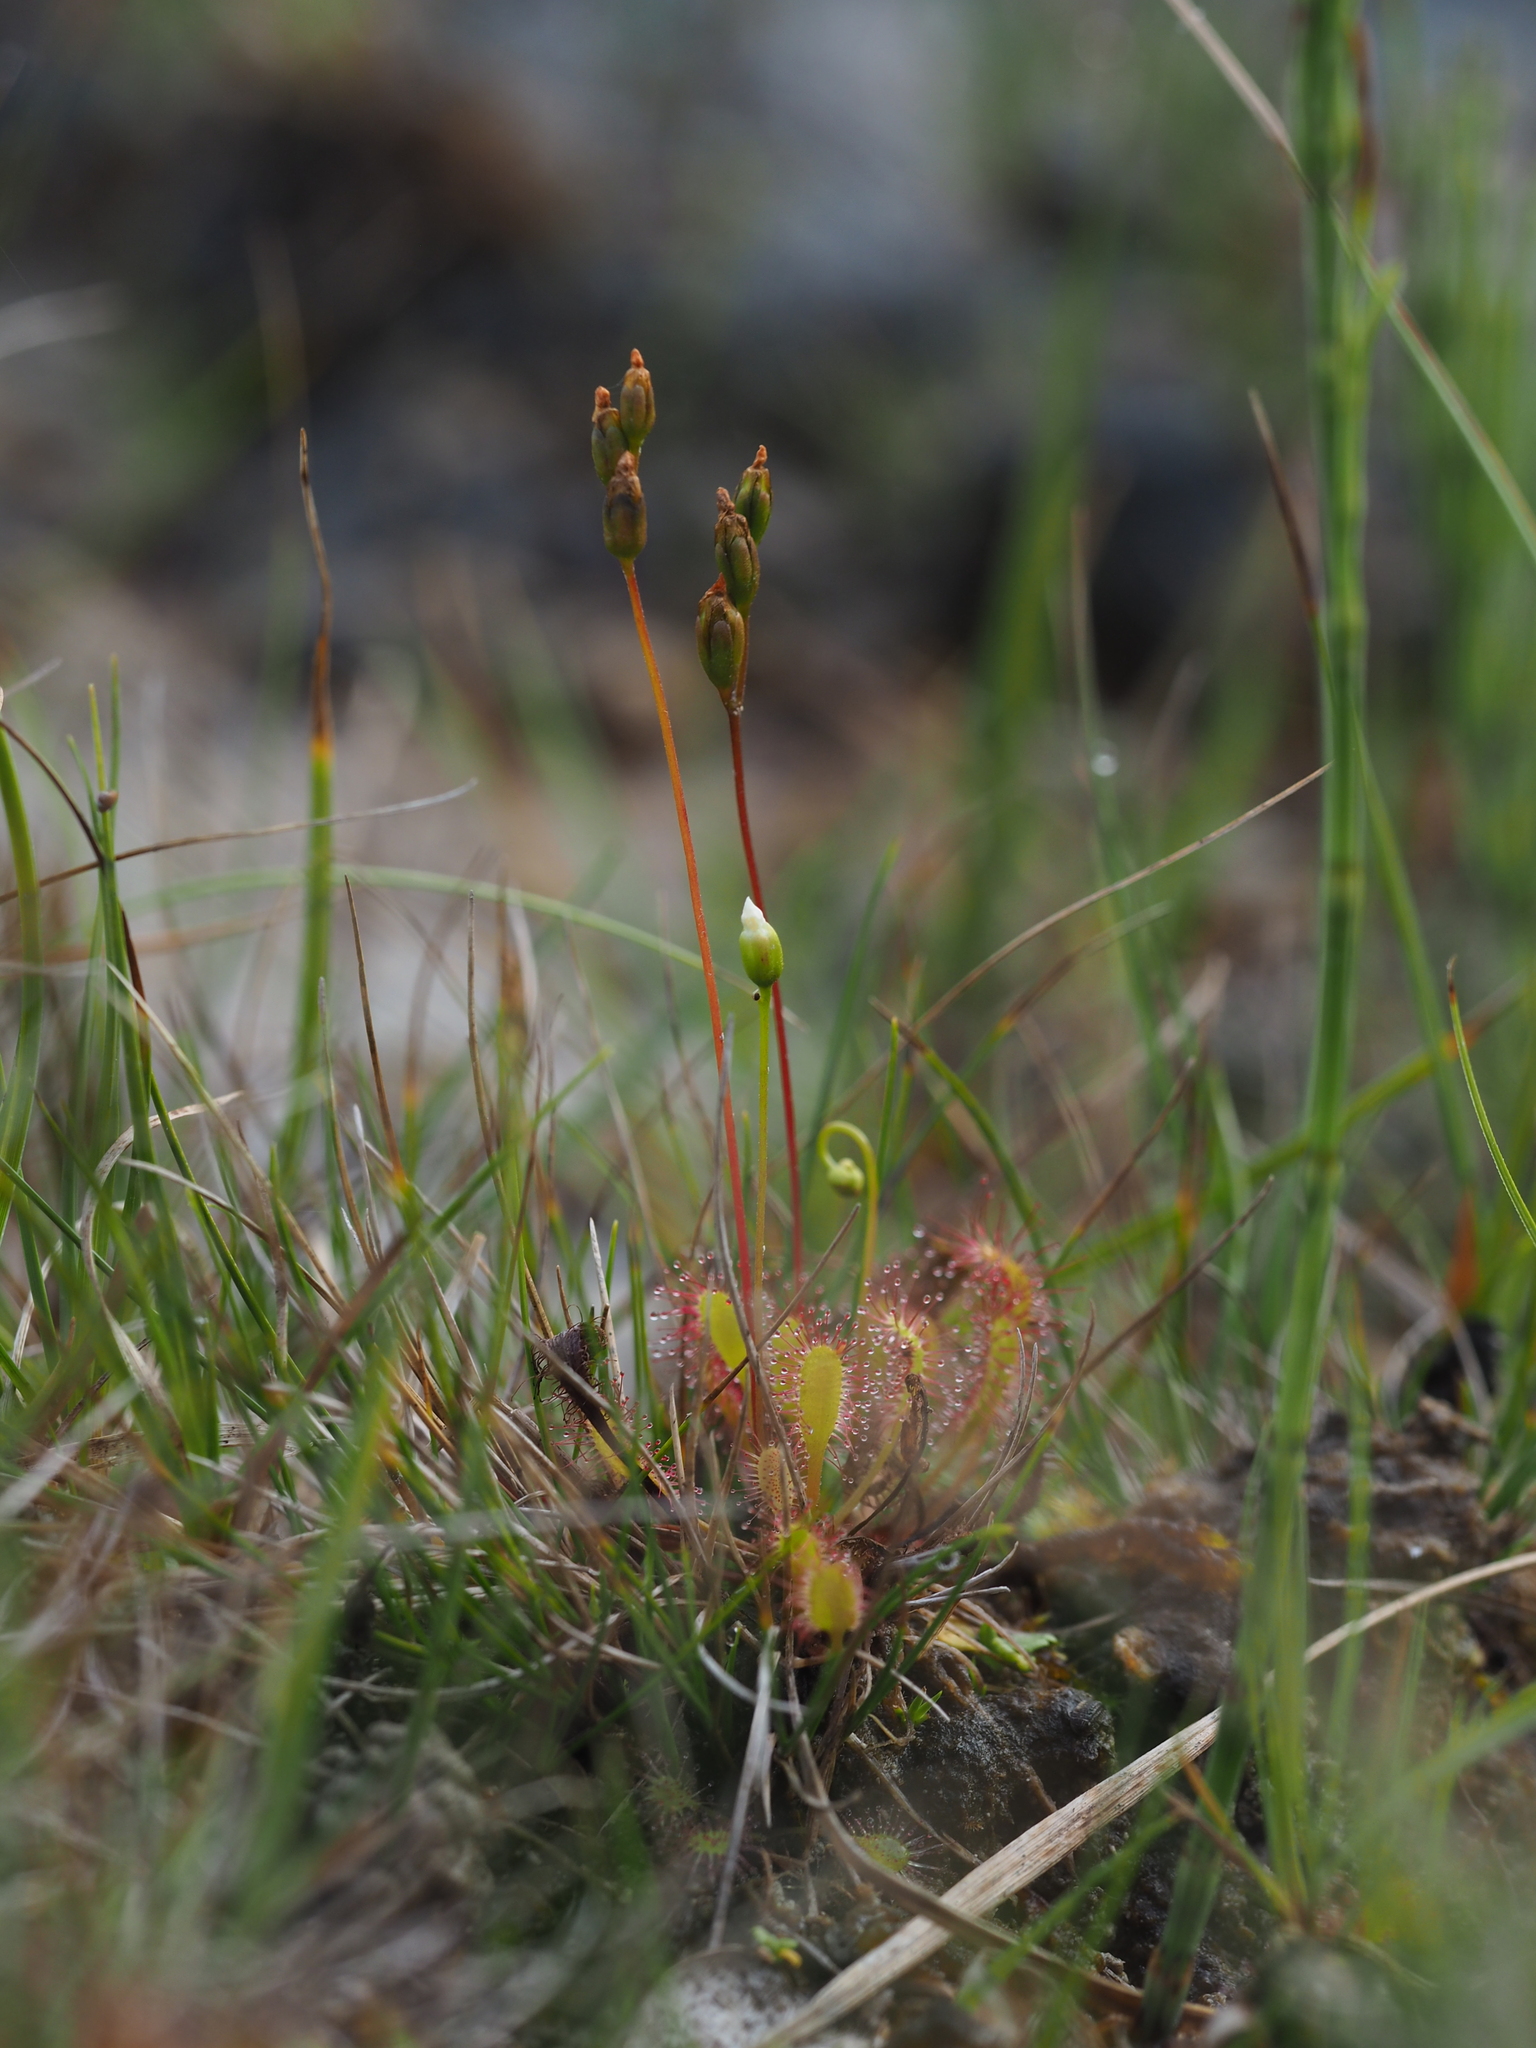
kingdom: Plantae
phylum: Tracheophyta
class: Magnoliopsida
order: Caryophyllales
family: Droseraceae
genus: Drosera
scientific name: Drosera anglica
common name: Great sundew
